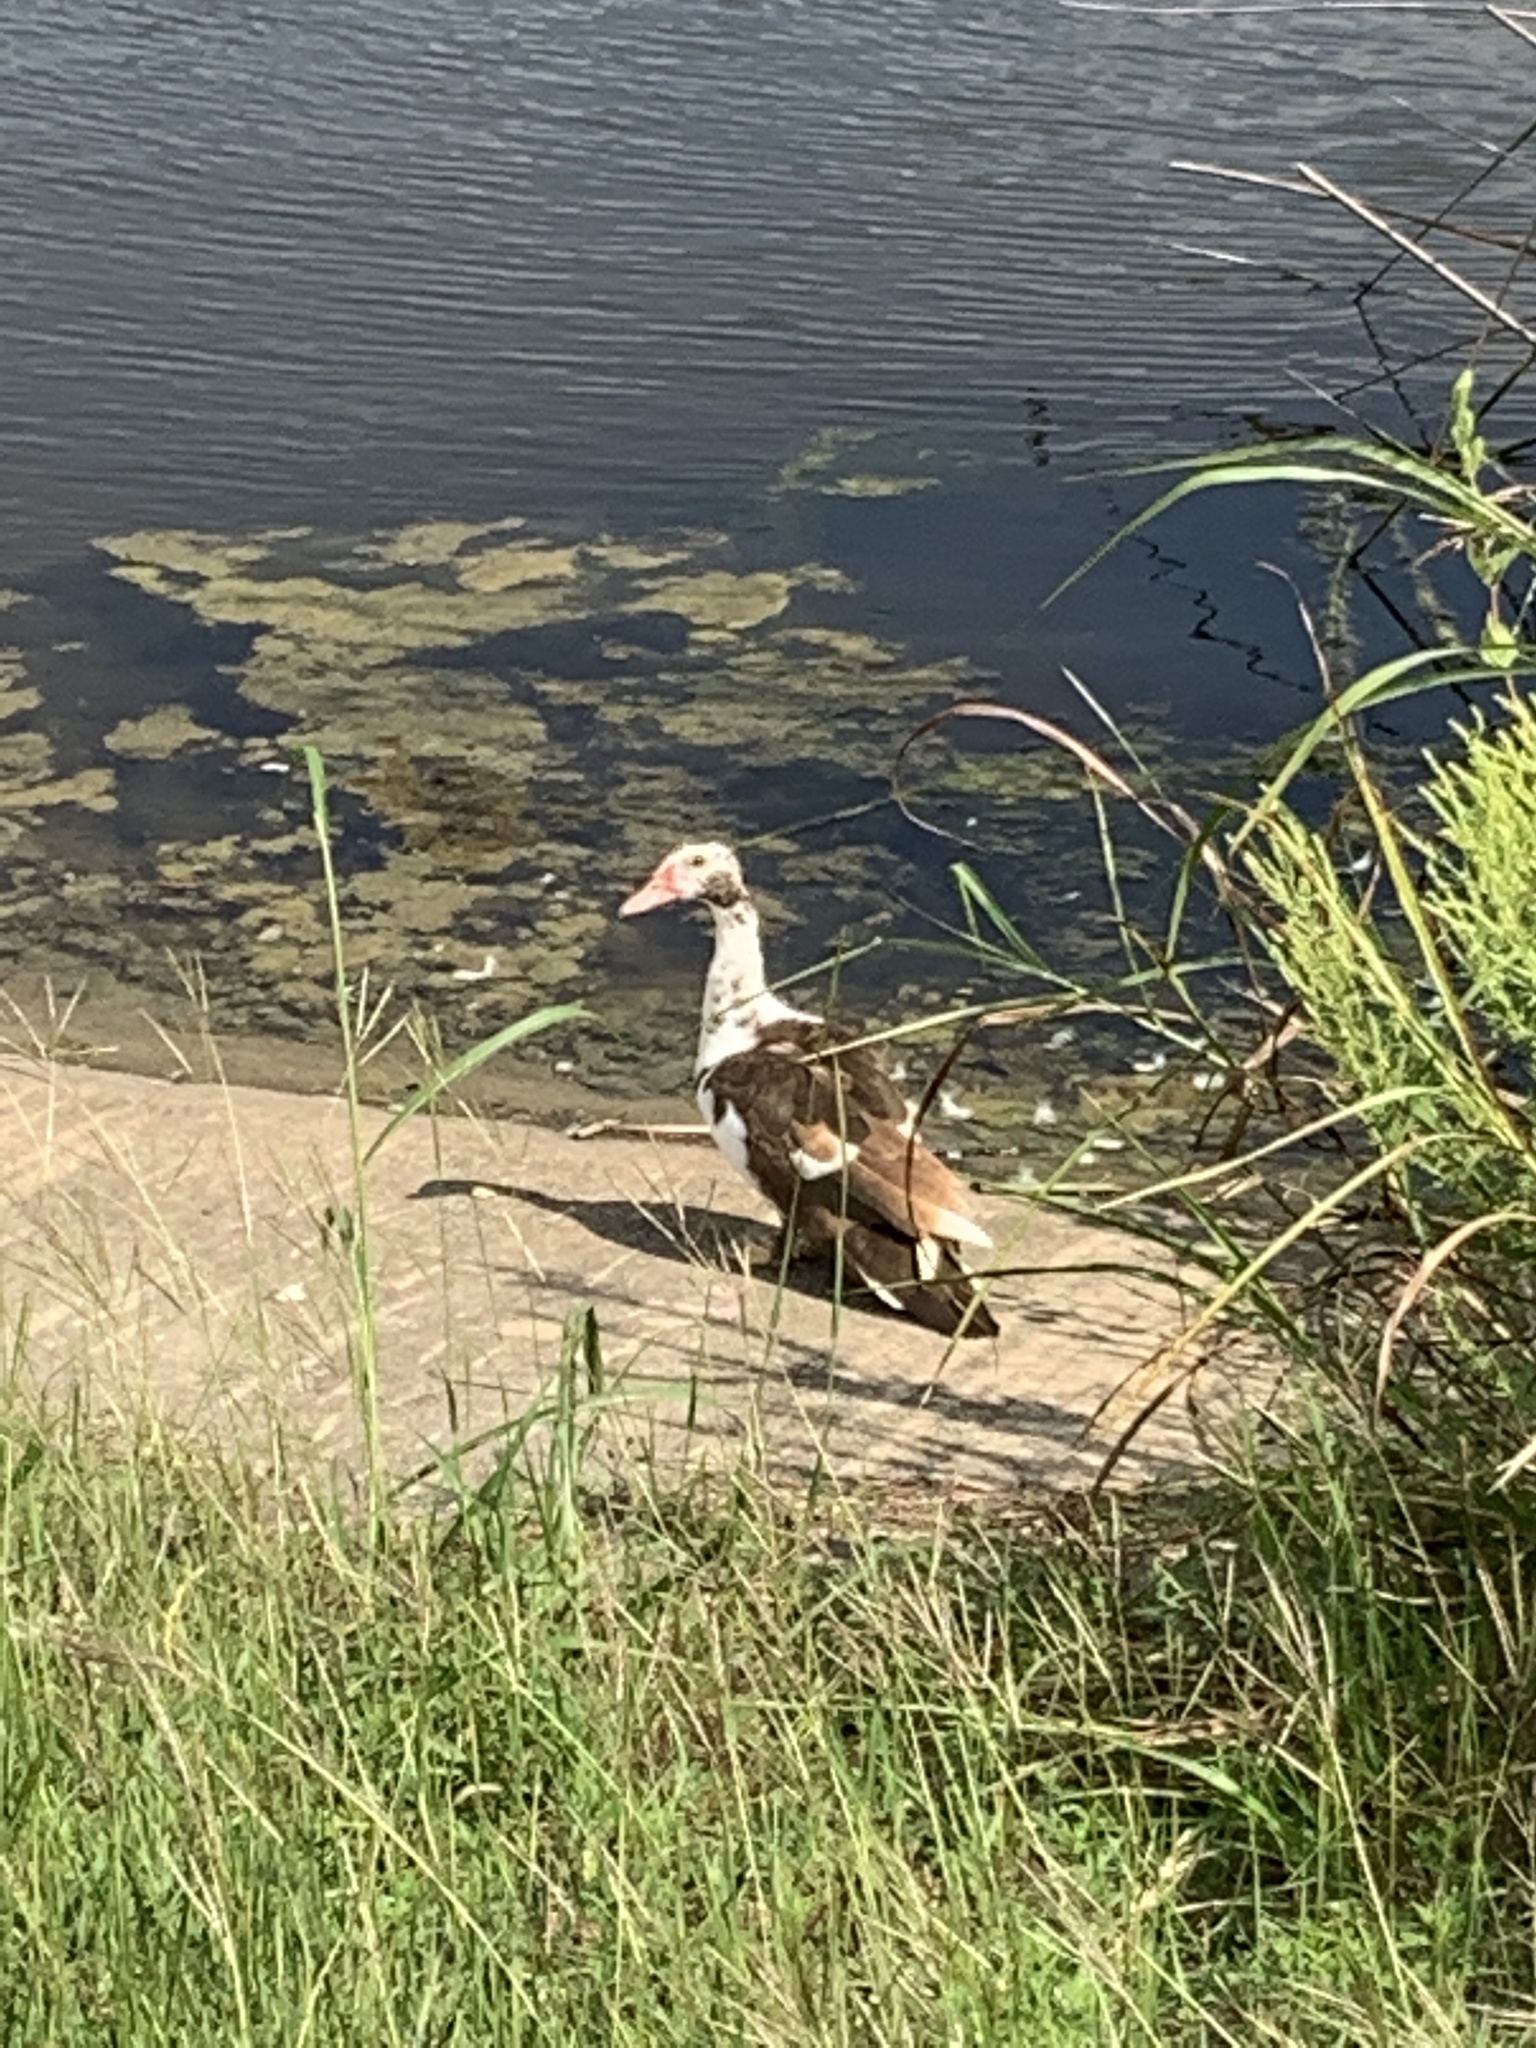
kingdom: Animalia
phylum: Chordata
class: Aves
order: Anseriformes
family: Anatidae
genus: Cairina
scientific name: Cairina moschata
